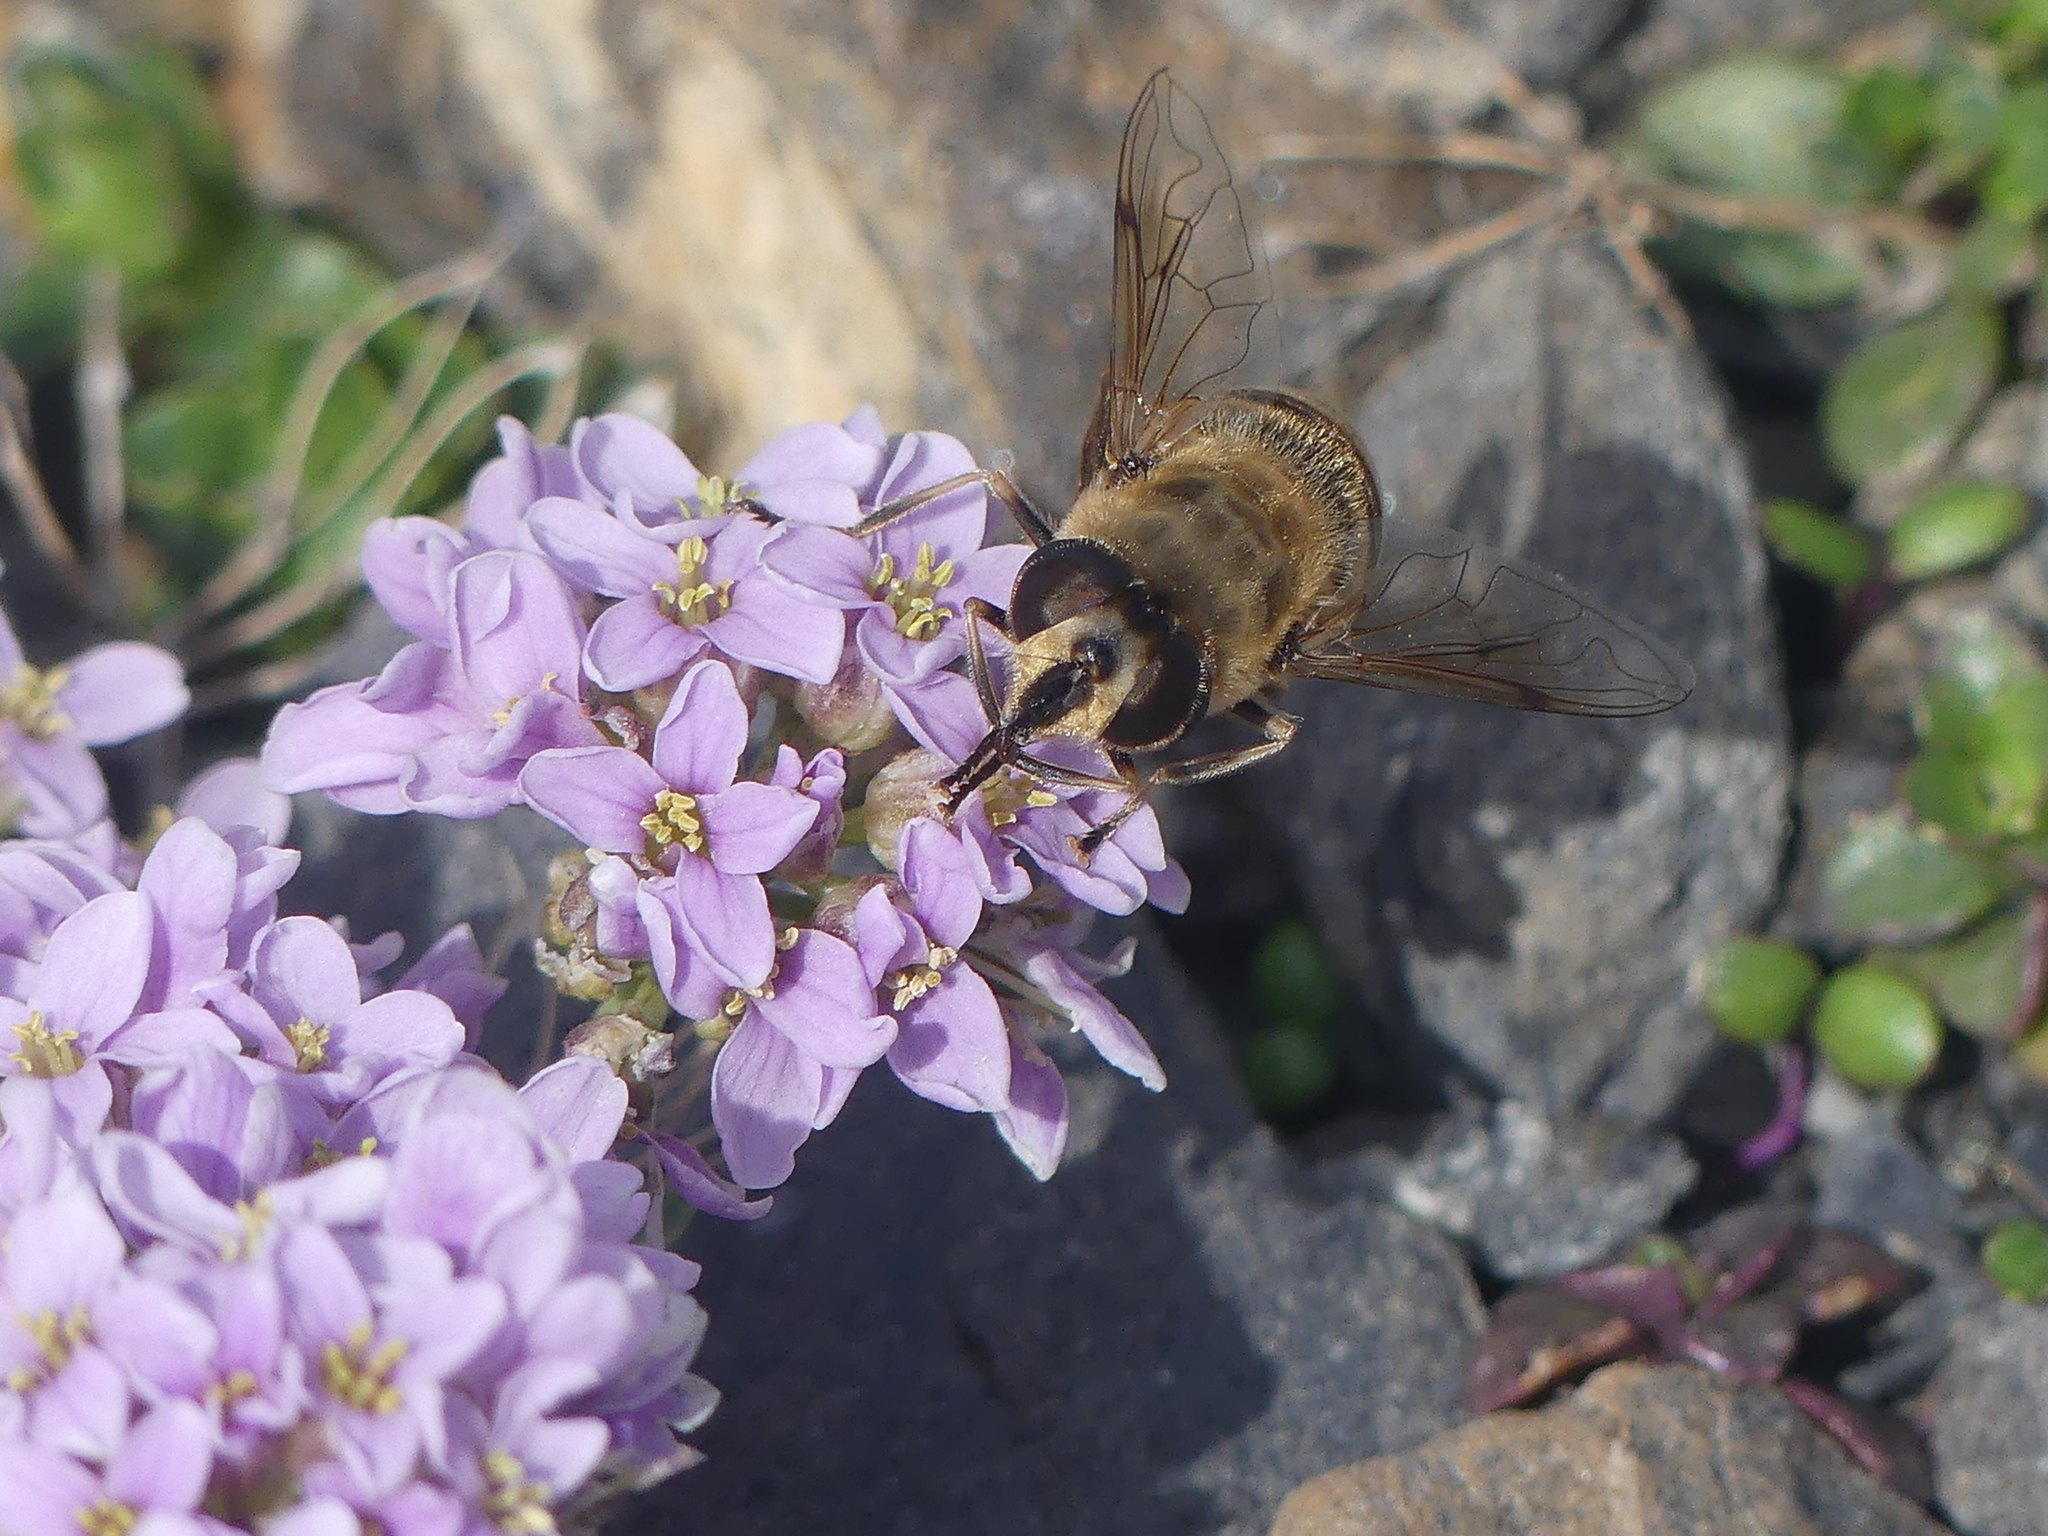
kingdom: Animalia
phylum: Arthropoda
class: Insecta
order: Diptera
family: Syrphidae
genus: Eristalis
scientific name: Eristalis tenax
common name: Drone fly
